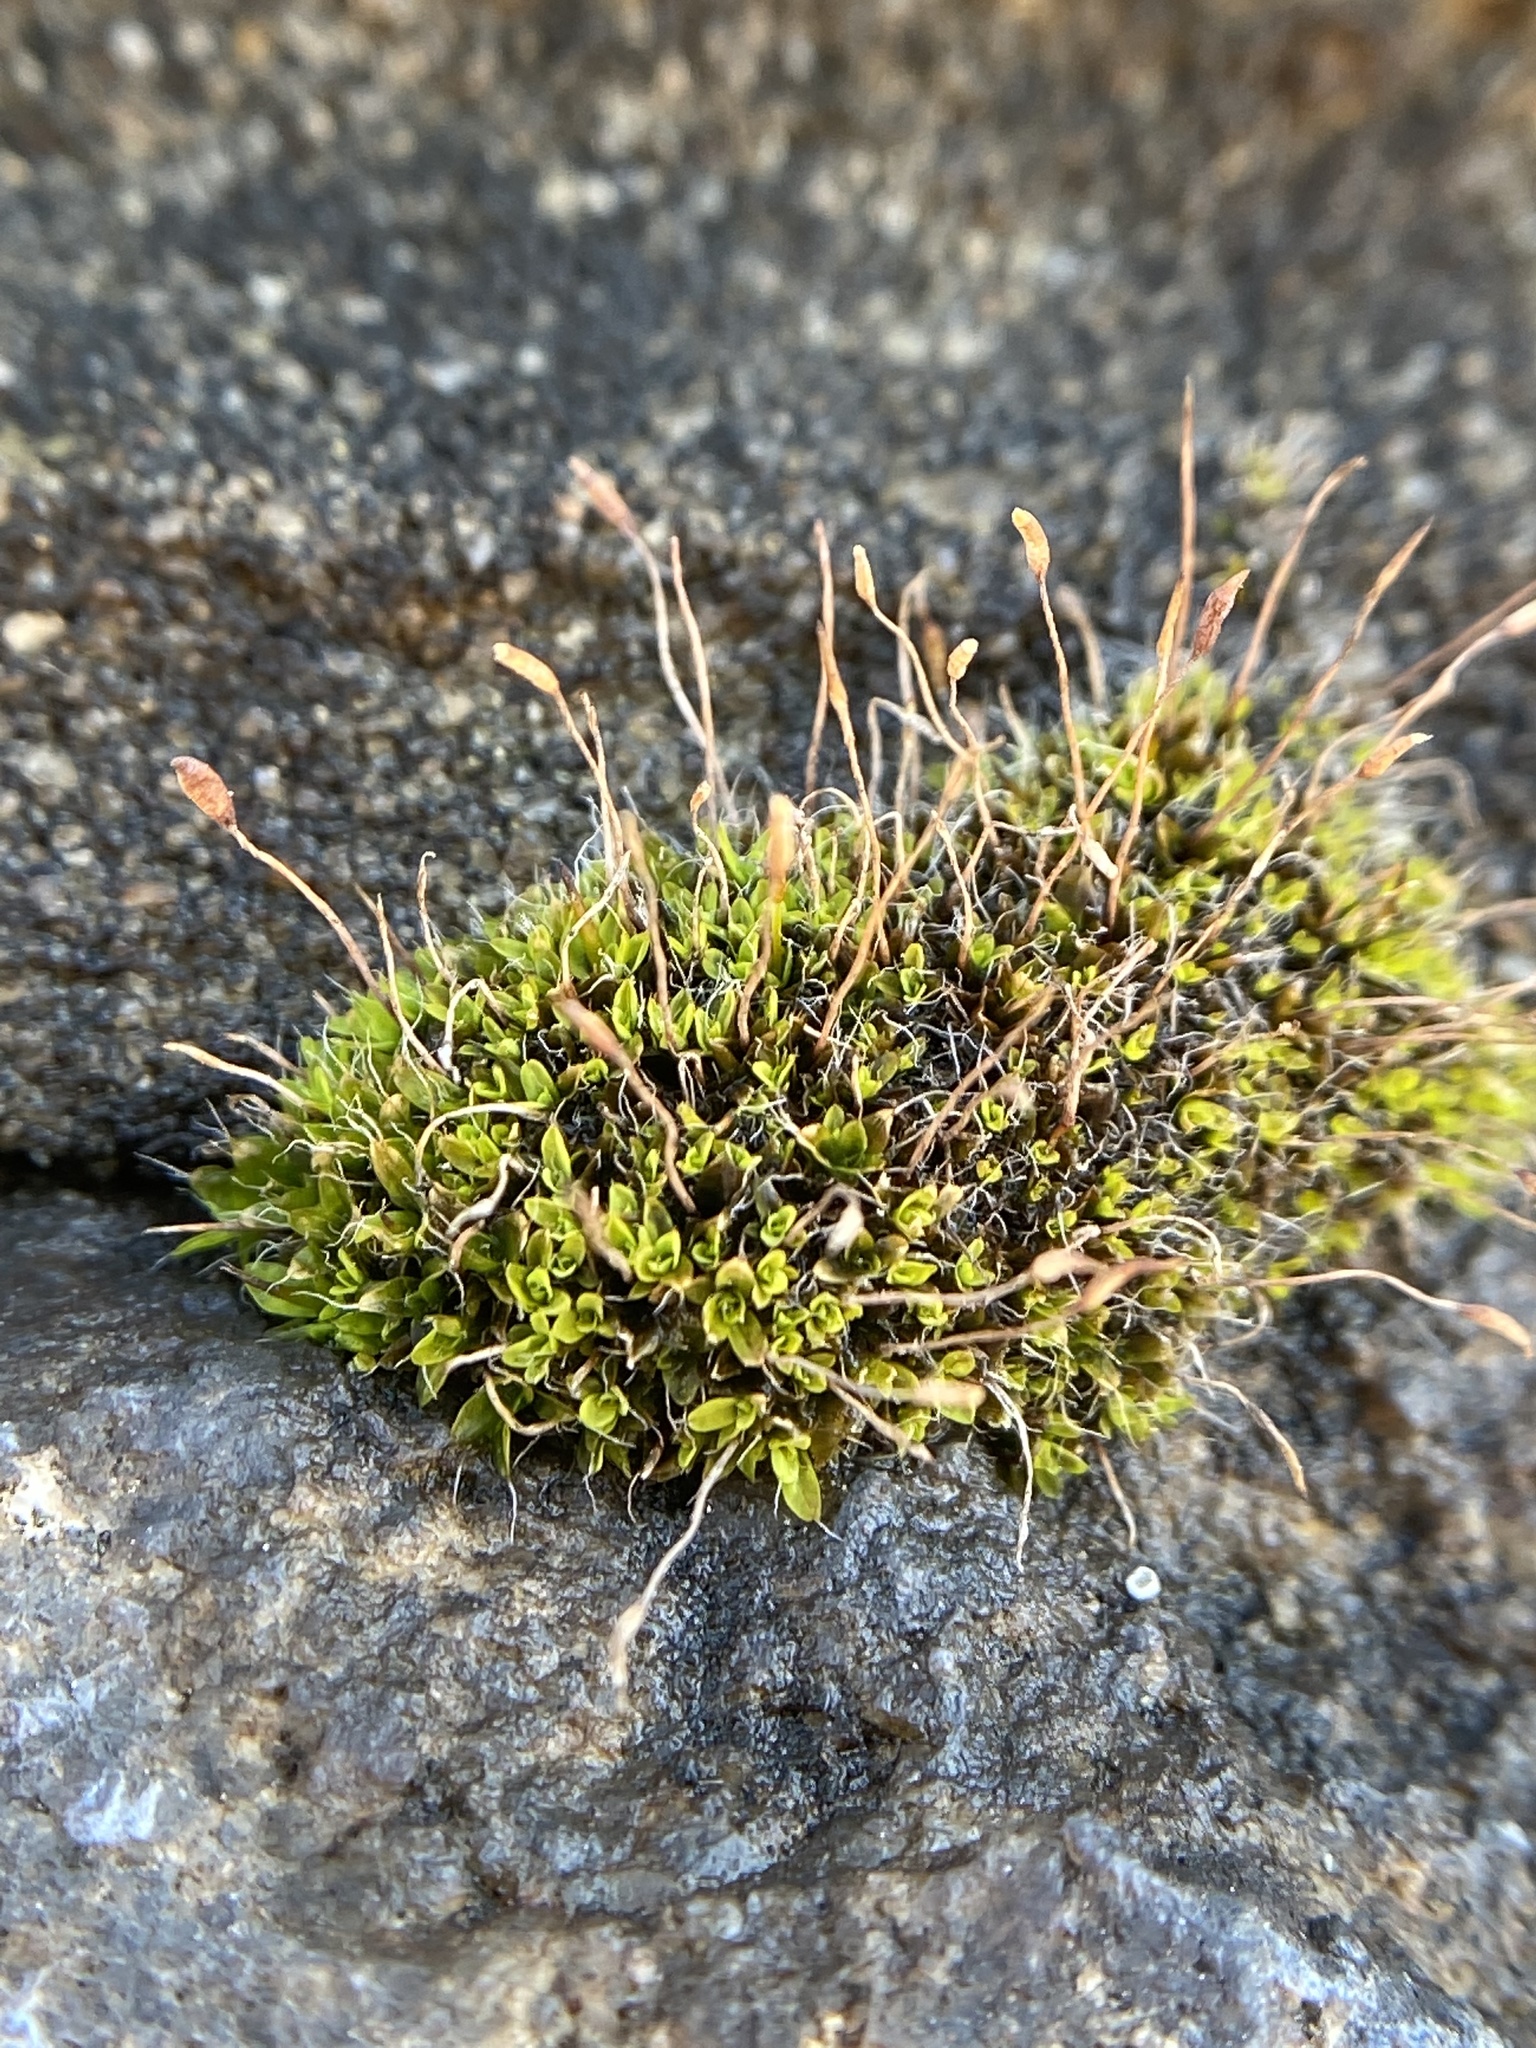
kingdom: Plantae
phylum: Bryophyta
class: Bryopsida
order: Pottiales
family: Pottiaceae
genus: Tortula
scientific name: Tortula muralis
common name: Wall screw-moss
